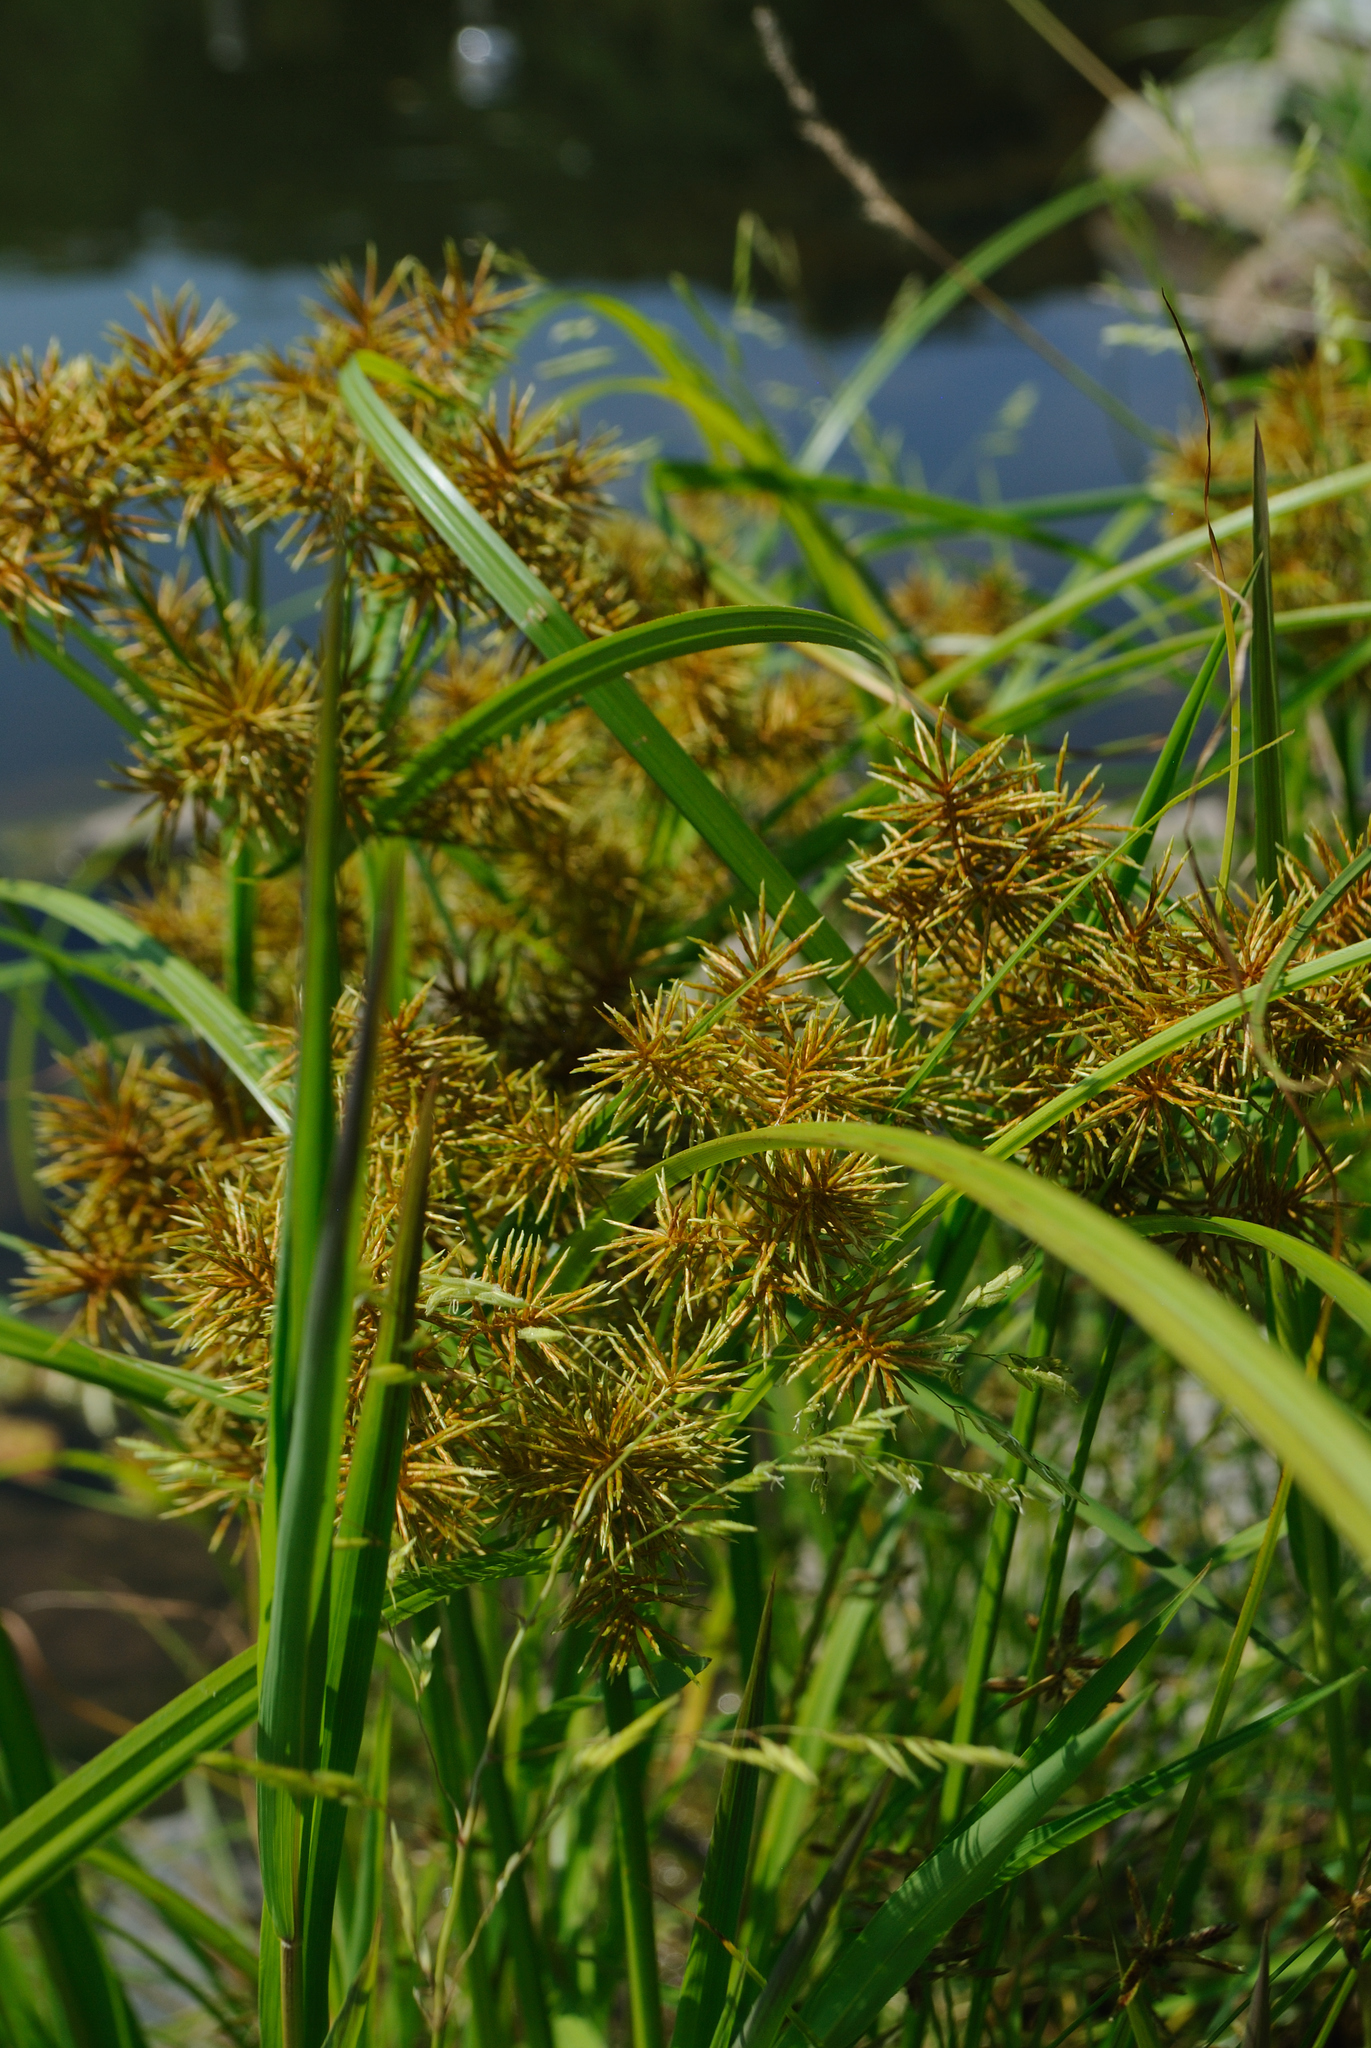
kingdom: Plantae
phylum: Tracheophyta
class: Liliopsida
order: Poales
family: Cyperaceae
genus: Cyperus
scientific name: Cyperus odoratus
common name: Fragrant flatsedge
